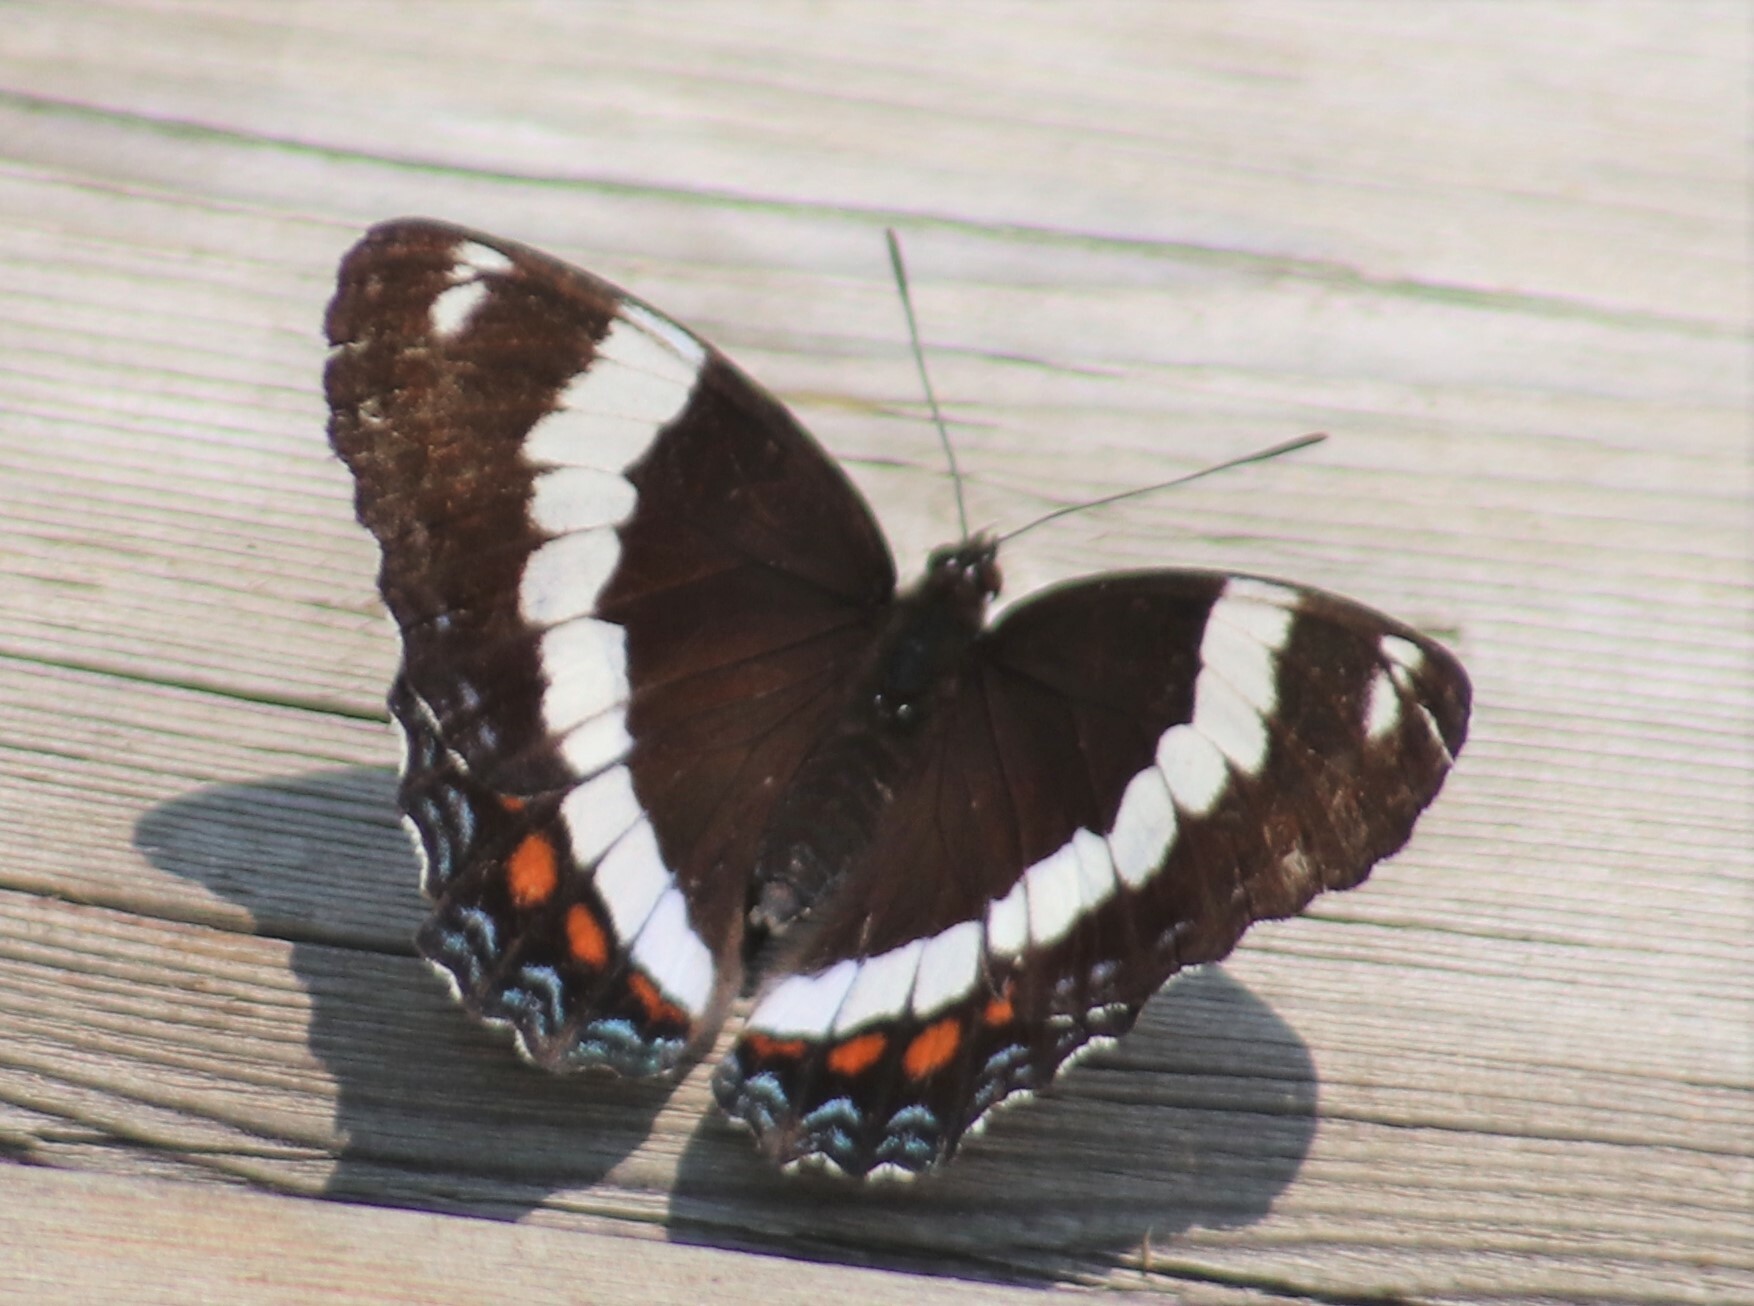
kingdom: Animalia
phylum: Arthropoda
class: Insecta
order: Lepidoptera
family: Nymphalidae
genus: Limenitis
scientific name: Limenitis arthemis
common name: Red-spotted admiral
